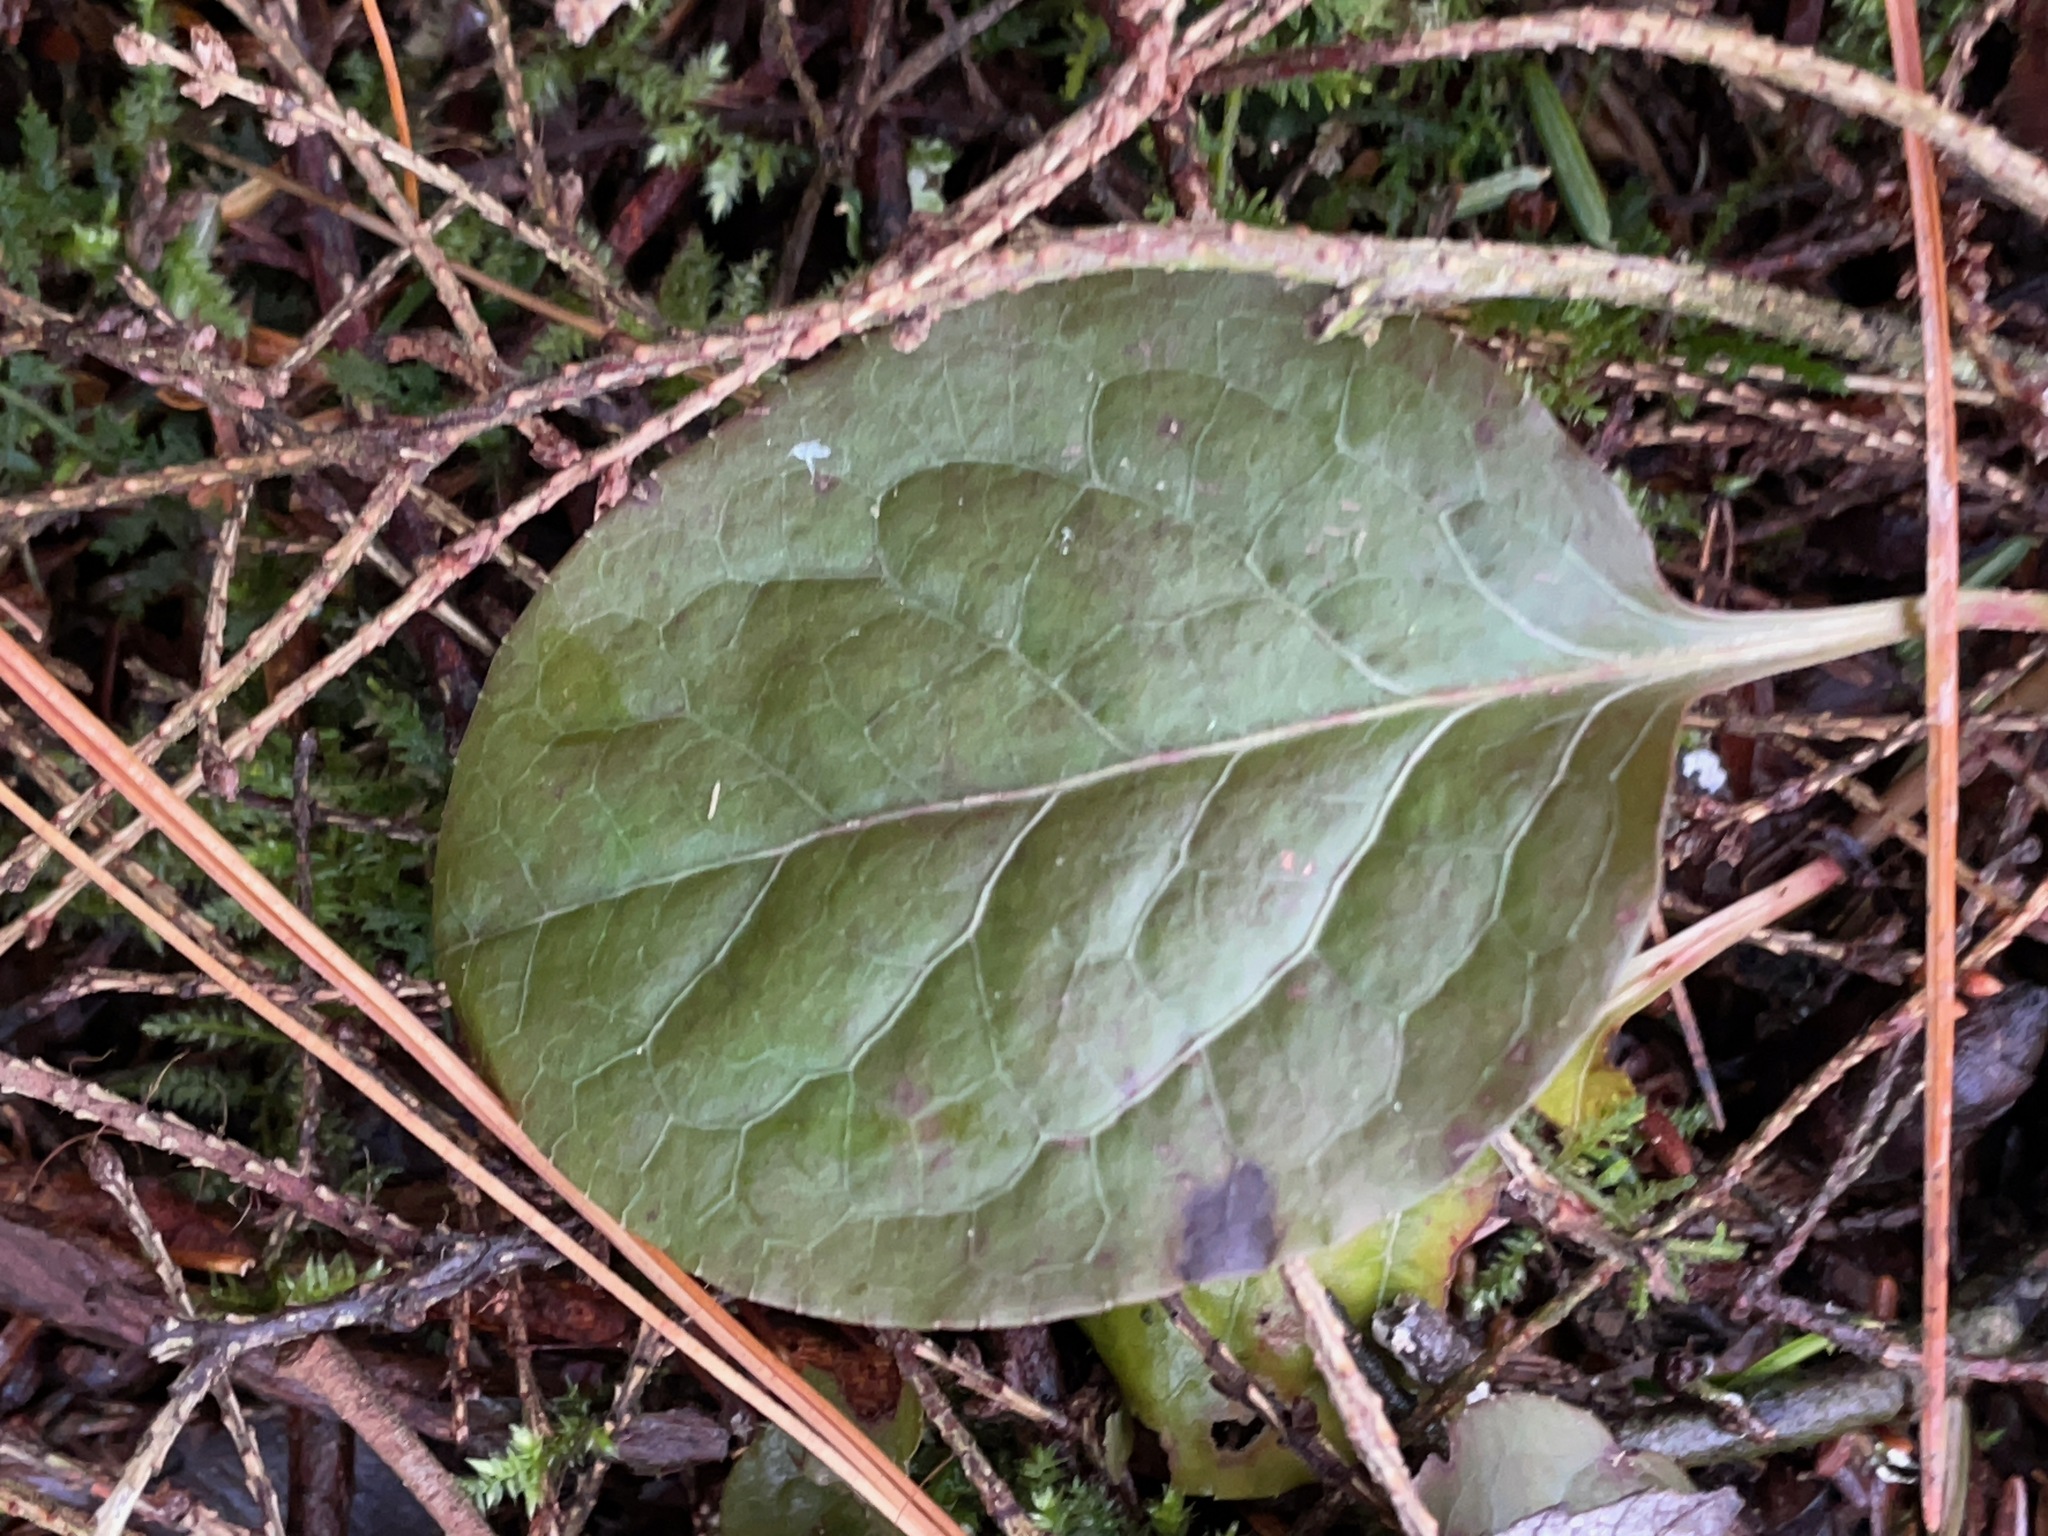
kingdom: Plantae
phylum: Tracheophyta
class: Magnoliopsida
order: Ericales
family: Ericaceae
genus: Pyrola
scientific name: Pyrola elliptica
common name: Shinleaf
